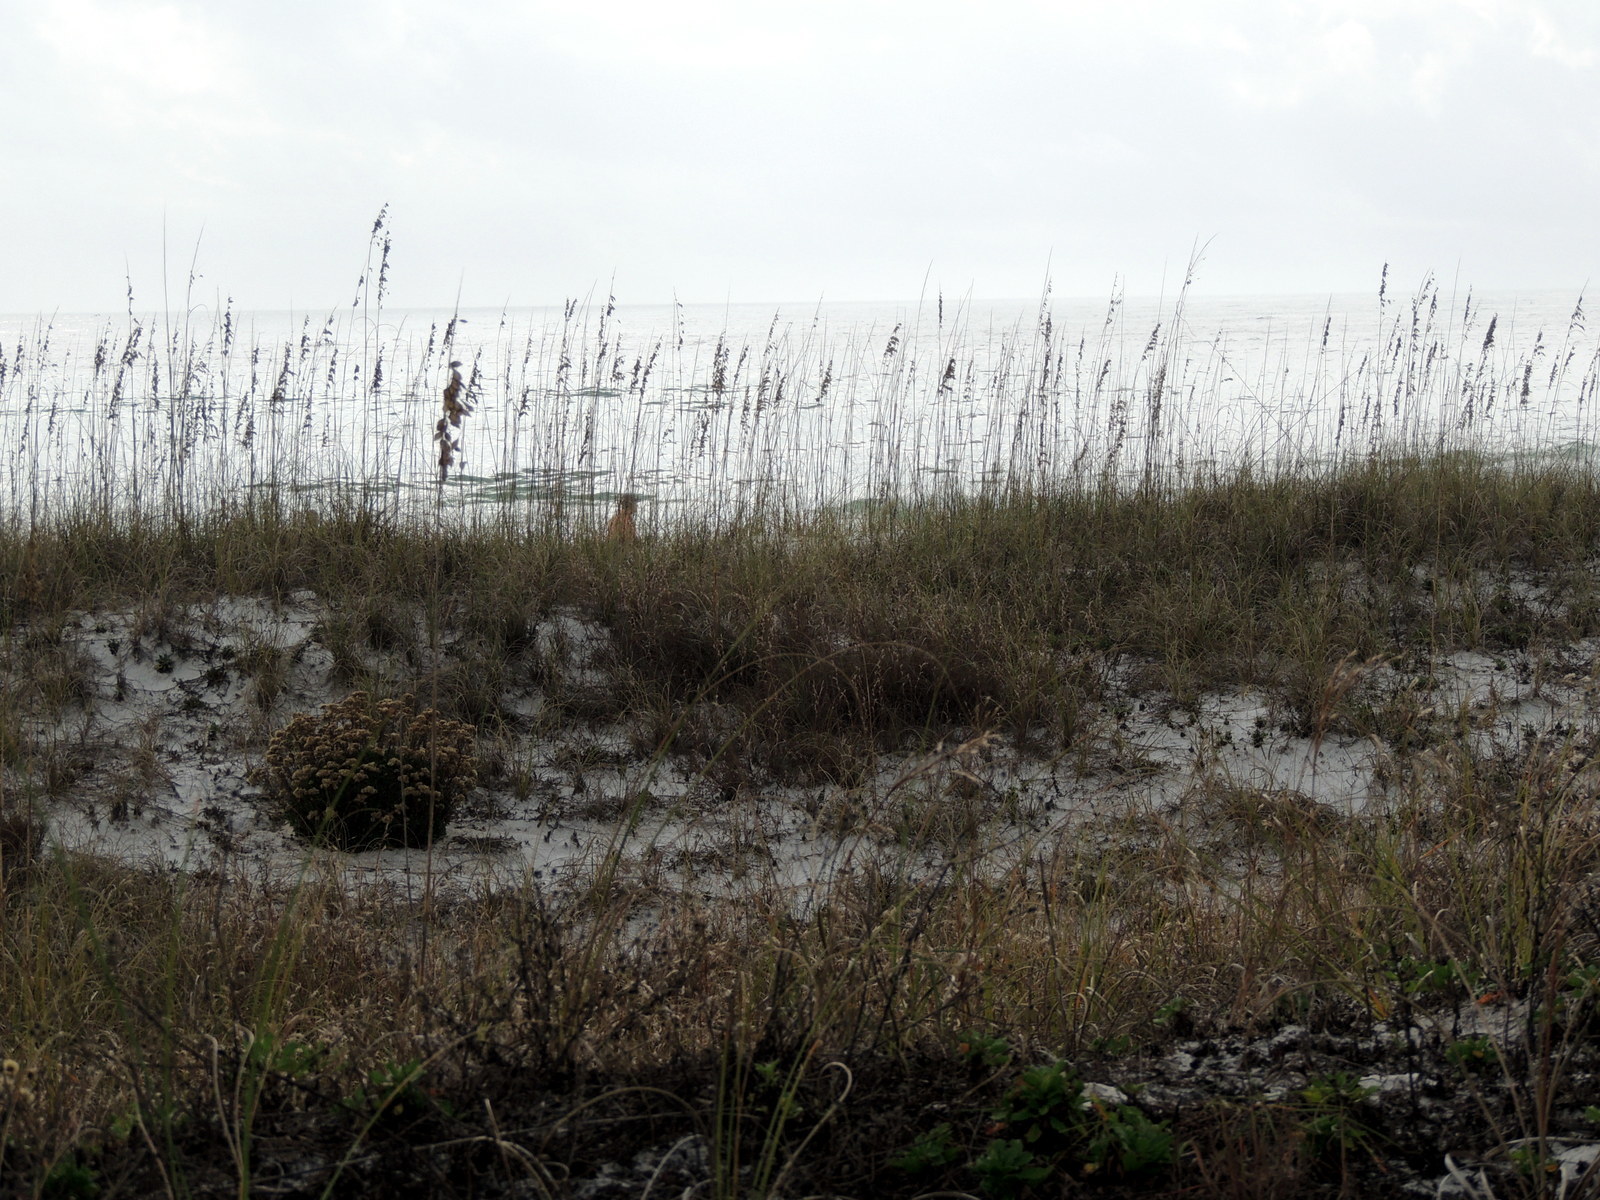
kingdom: Plantae
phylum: Tracheophyta
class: Magnoliopsida
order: Asterales
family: Asteraceae
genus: Chrysoma
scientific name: Chrysoma pauciflosculosa
